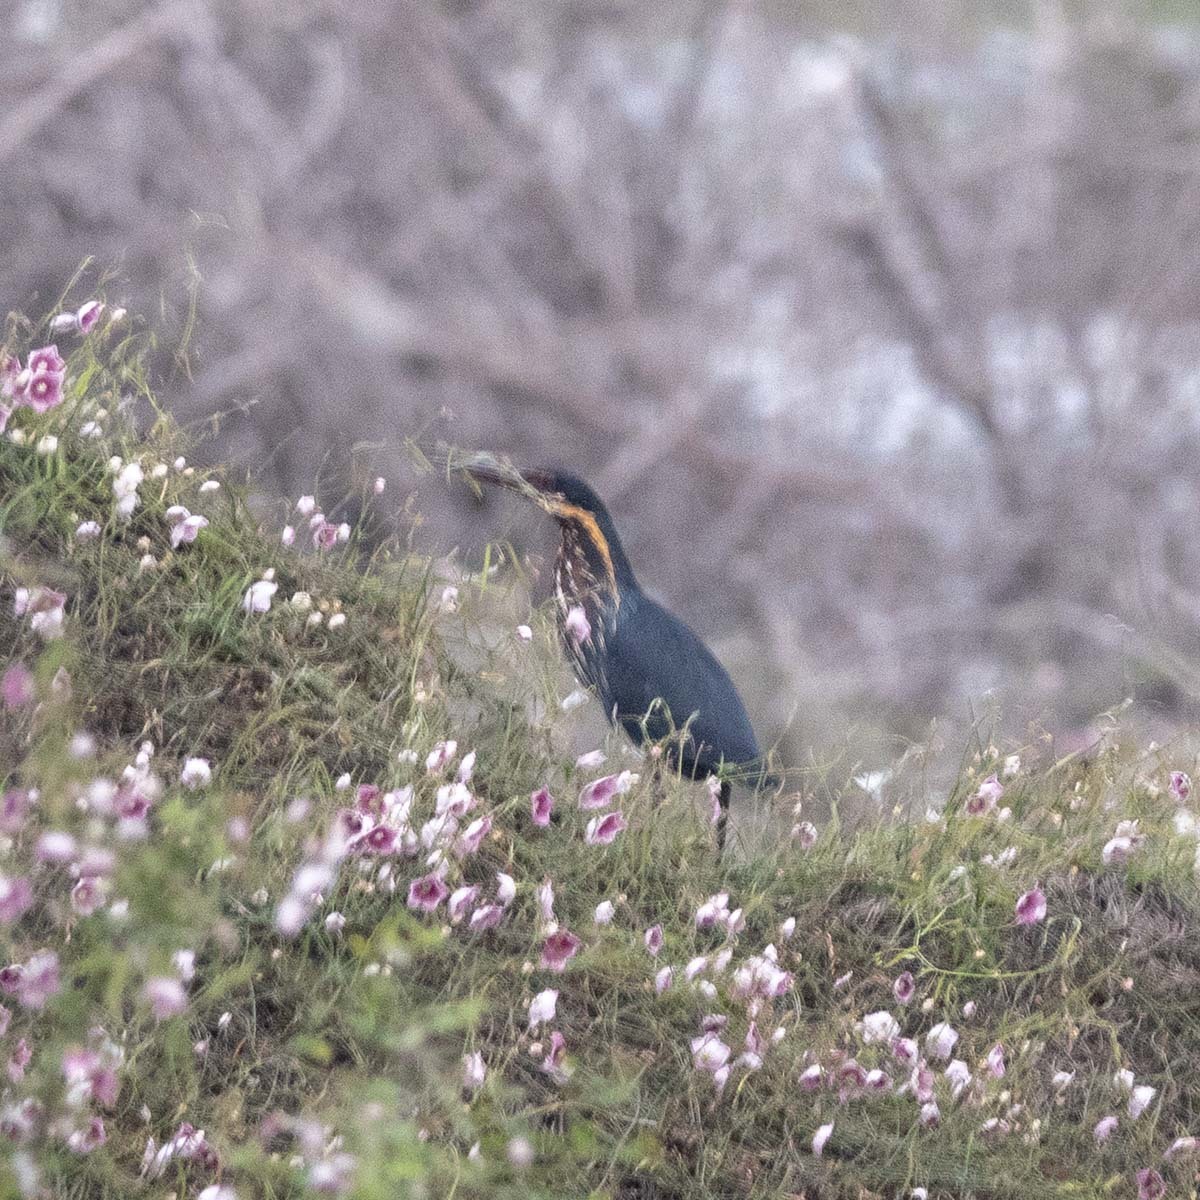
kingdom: Animalia
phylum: Chordata
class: Aves
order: Pelecaniformes
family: Ardeidae
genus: Dupetor
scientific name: Dupetor flavicollis
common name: Black bittern
